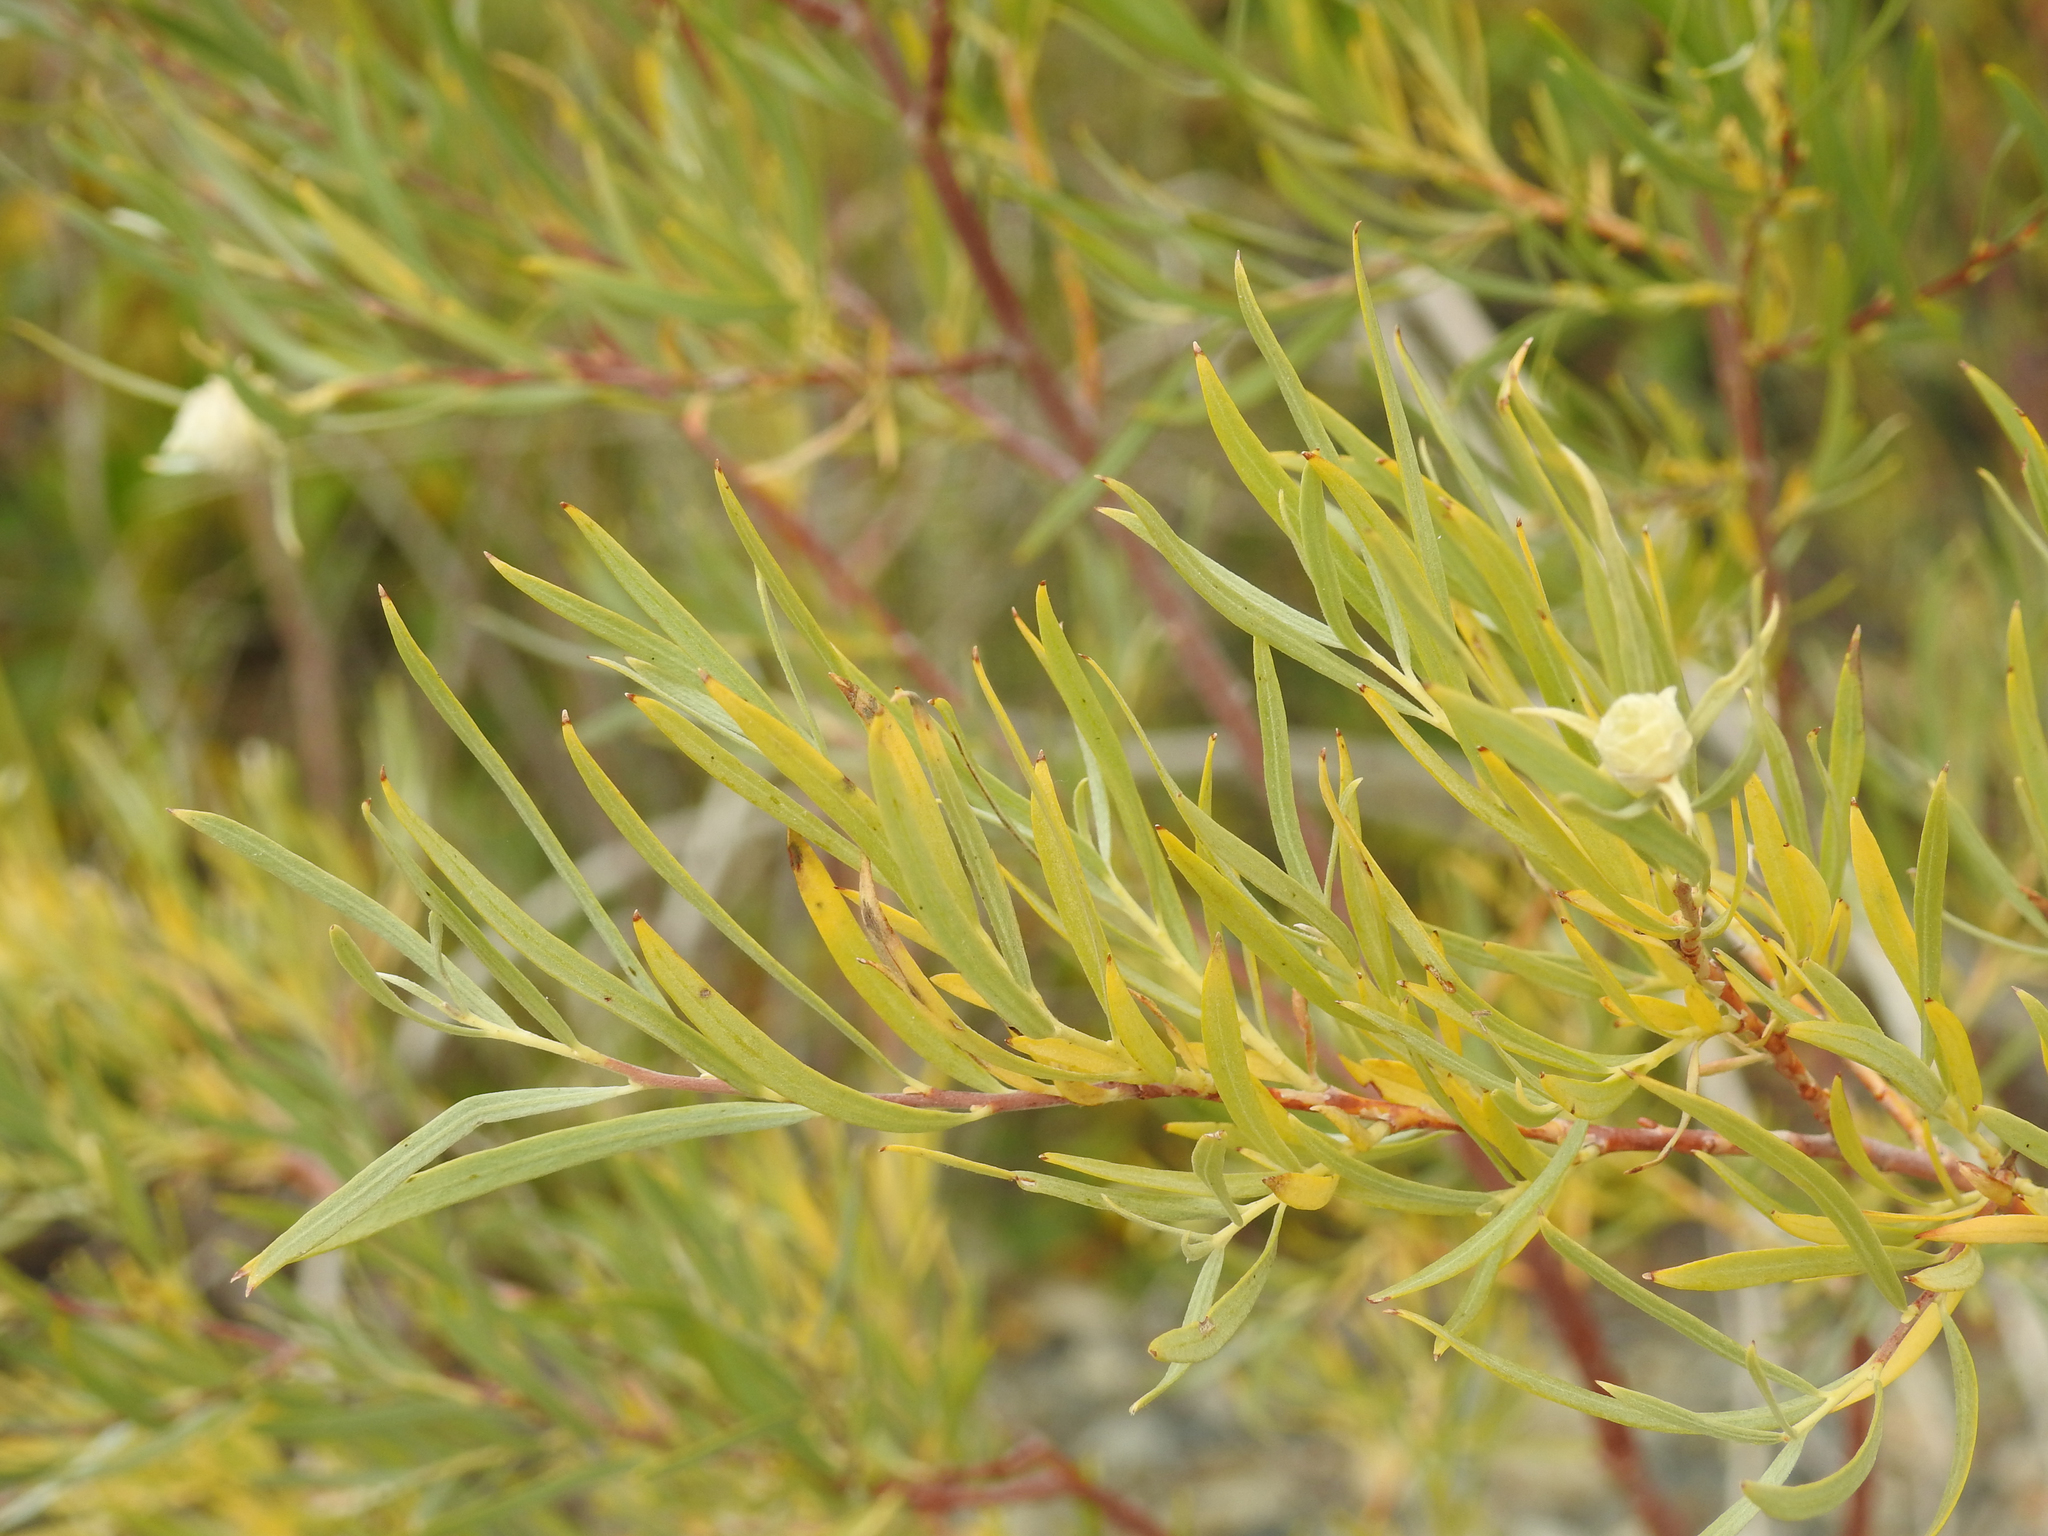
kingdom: Plantae
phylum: Tracheophyta
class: Magnoliopsida
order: Malpighiales
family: Salicaceae
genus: Salix
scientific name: Salix exigua
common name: Coyote willow
